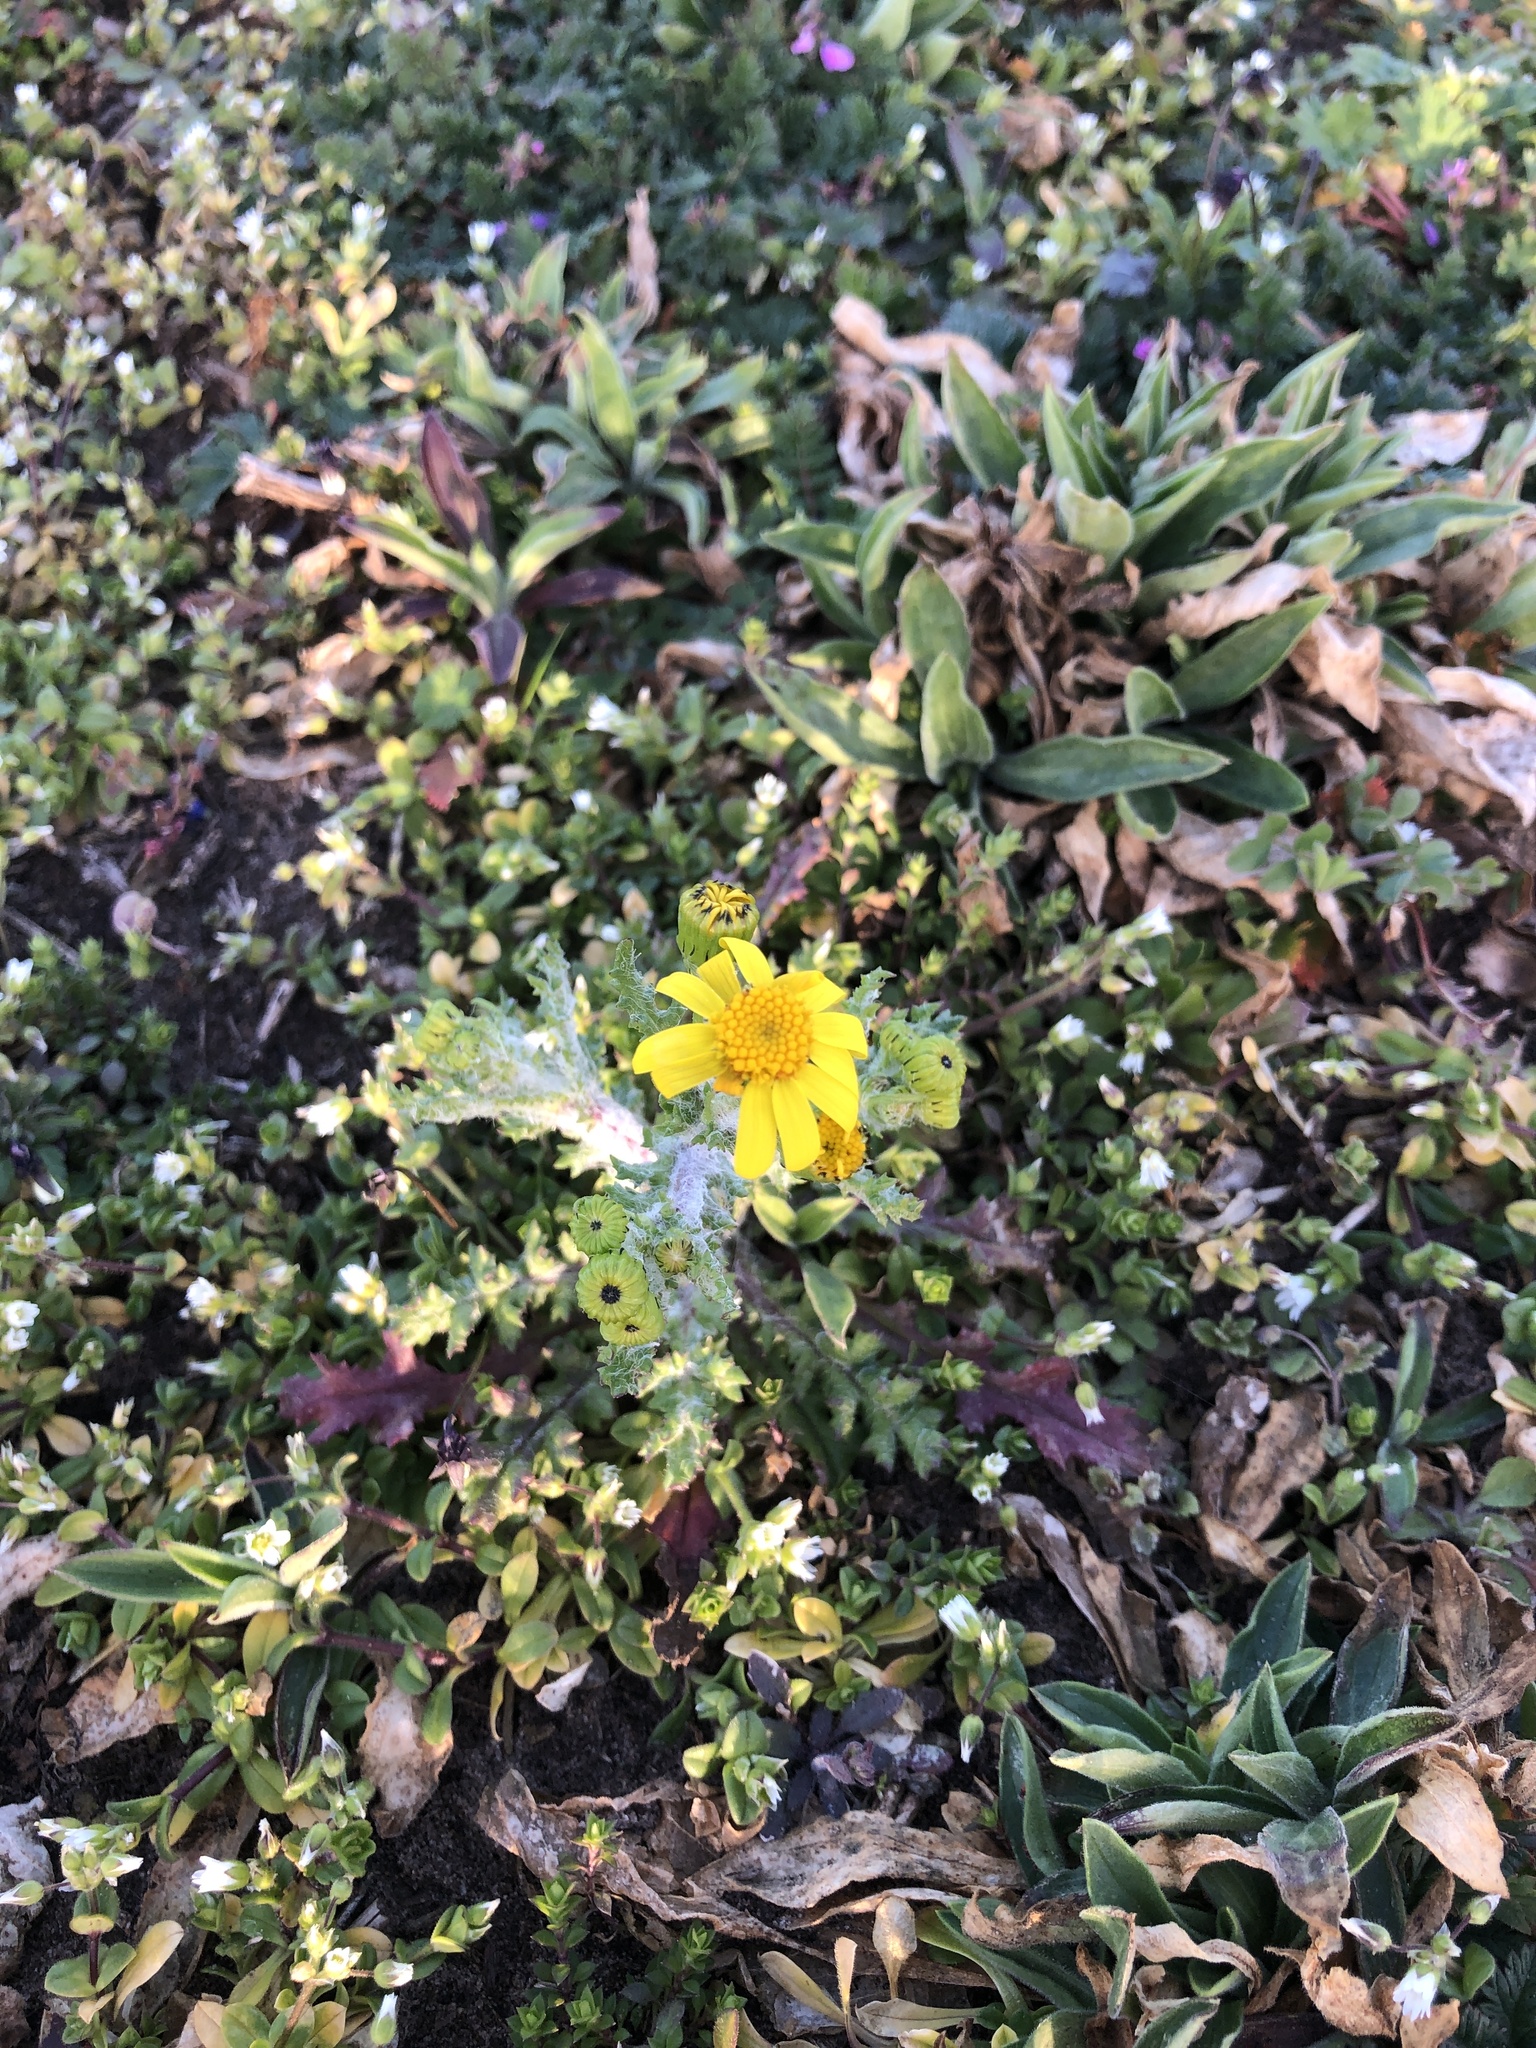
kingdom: Plantae
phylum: Tracheophyta
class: Magnoliopsida
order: Asterales
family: Asteraceae
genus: Senecio
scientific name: Senecio vernalis
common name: Eastern groundsel
